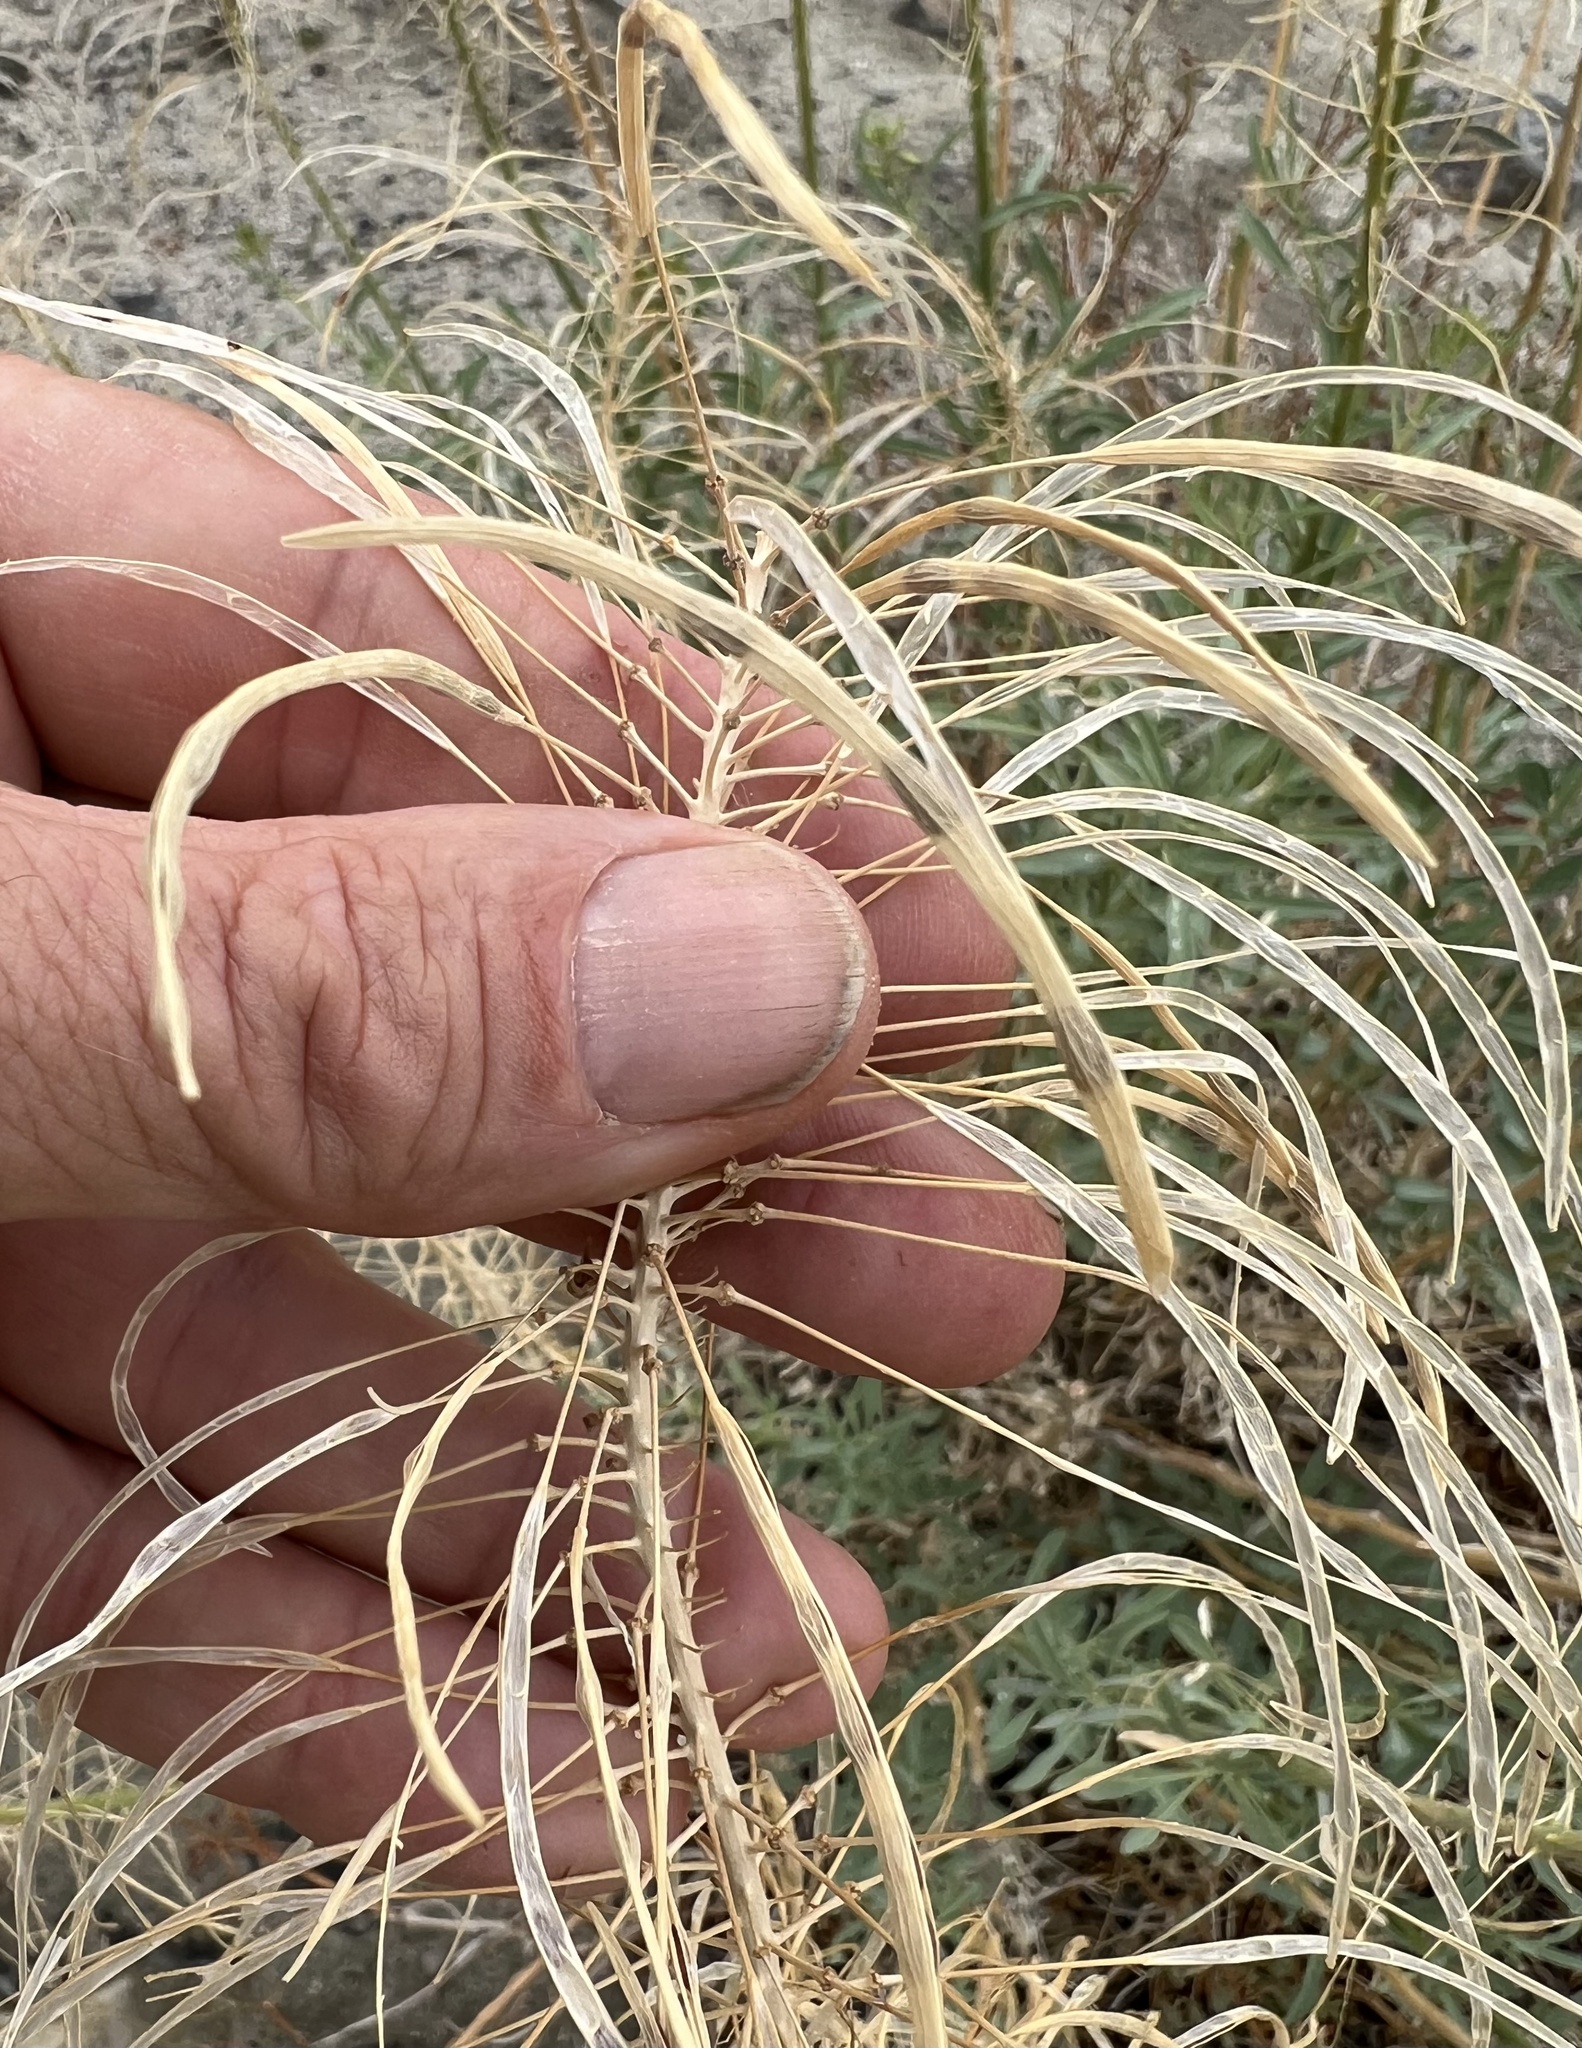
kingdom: Plantae
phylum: Tracheophyta
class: Magnoliopsida
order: Brassicales
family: Brassicaceae
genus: Stanleya
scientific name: Stanleya pinnata
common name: Prince's-plume
